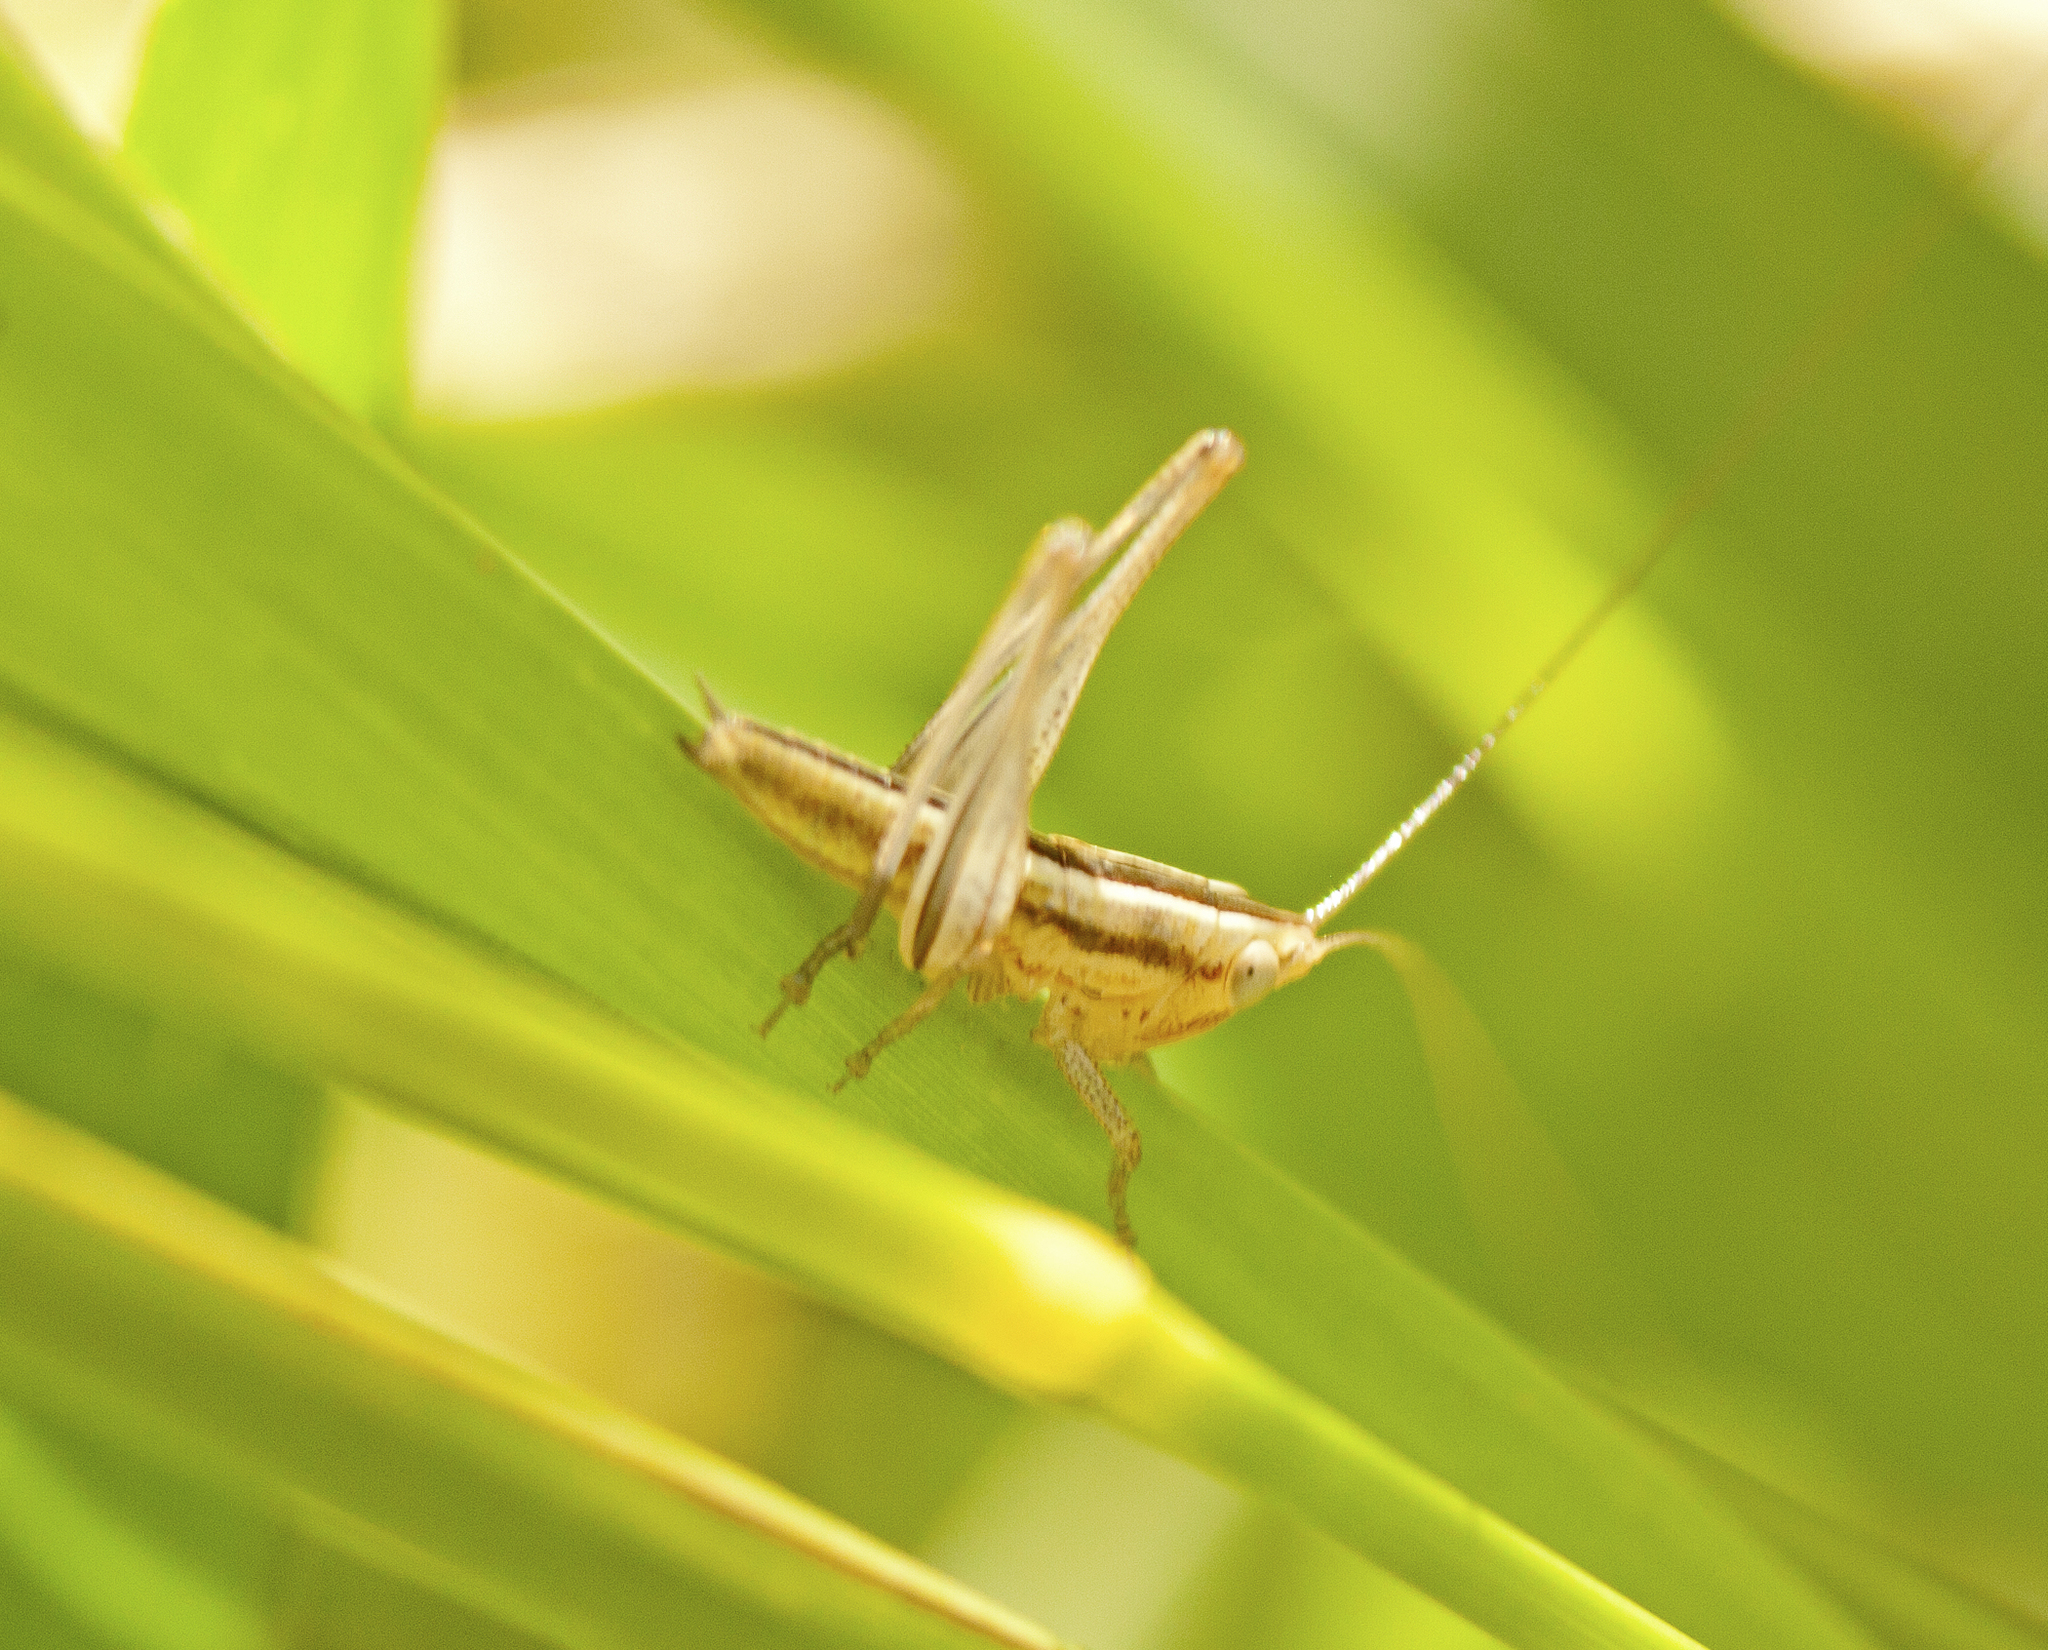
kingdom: Animalia
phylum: Arthropoda
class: Insecta
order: Orthoptera
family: Tettigoniidae
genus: Conocephalus
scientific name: Conocephalus upoluensis
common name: Upolu meadow katydid
